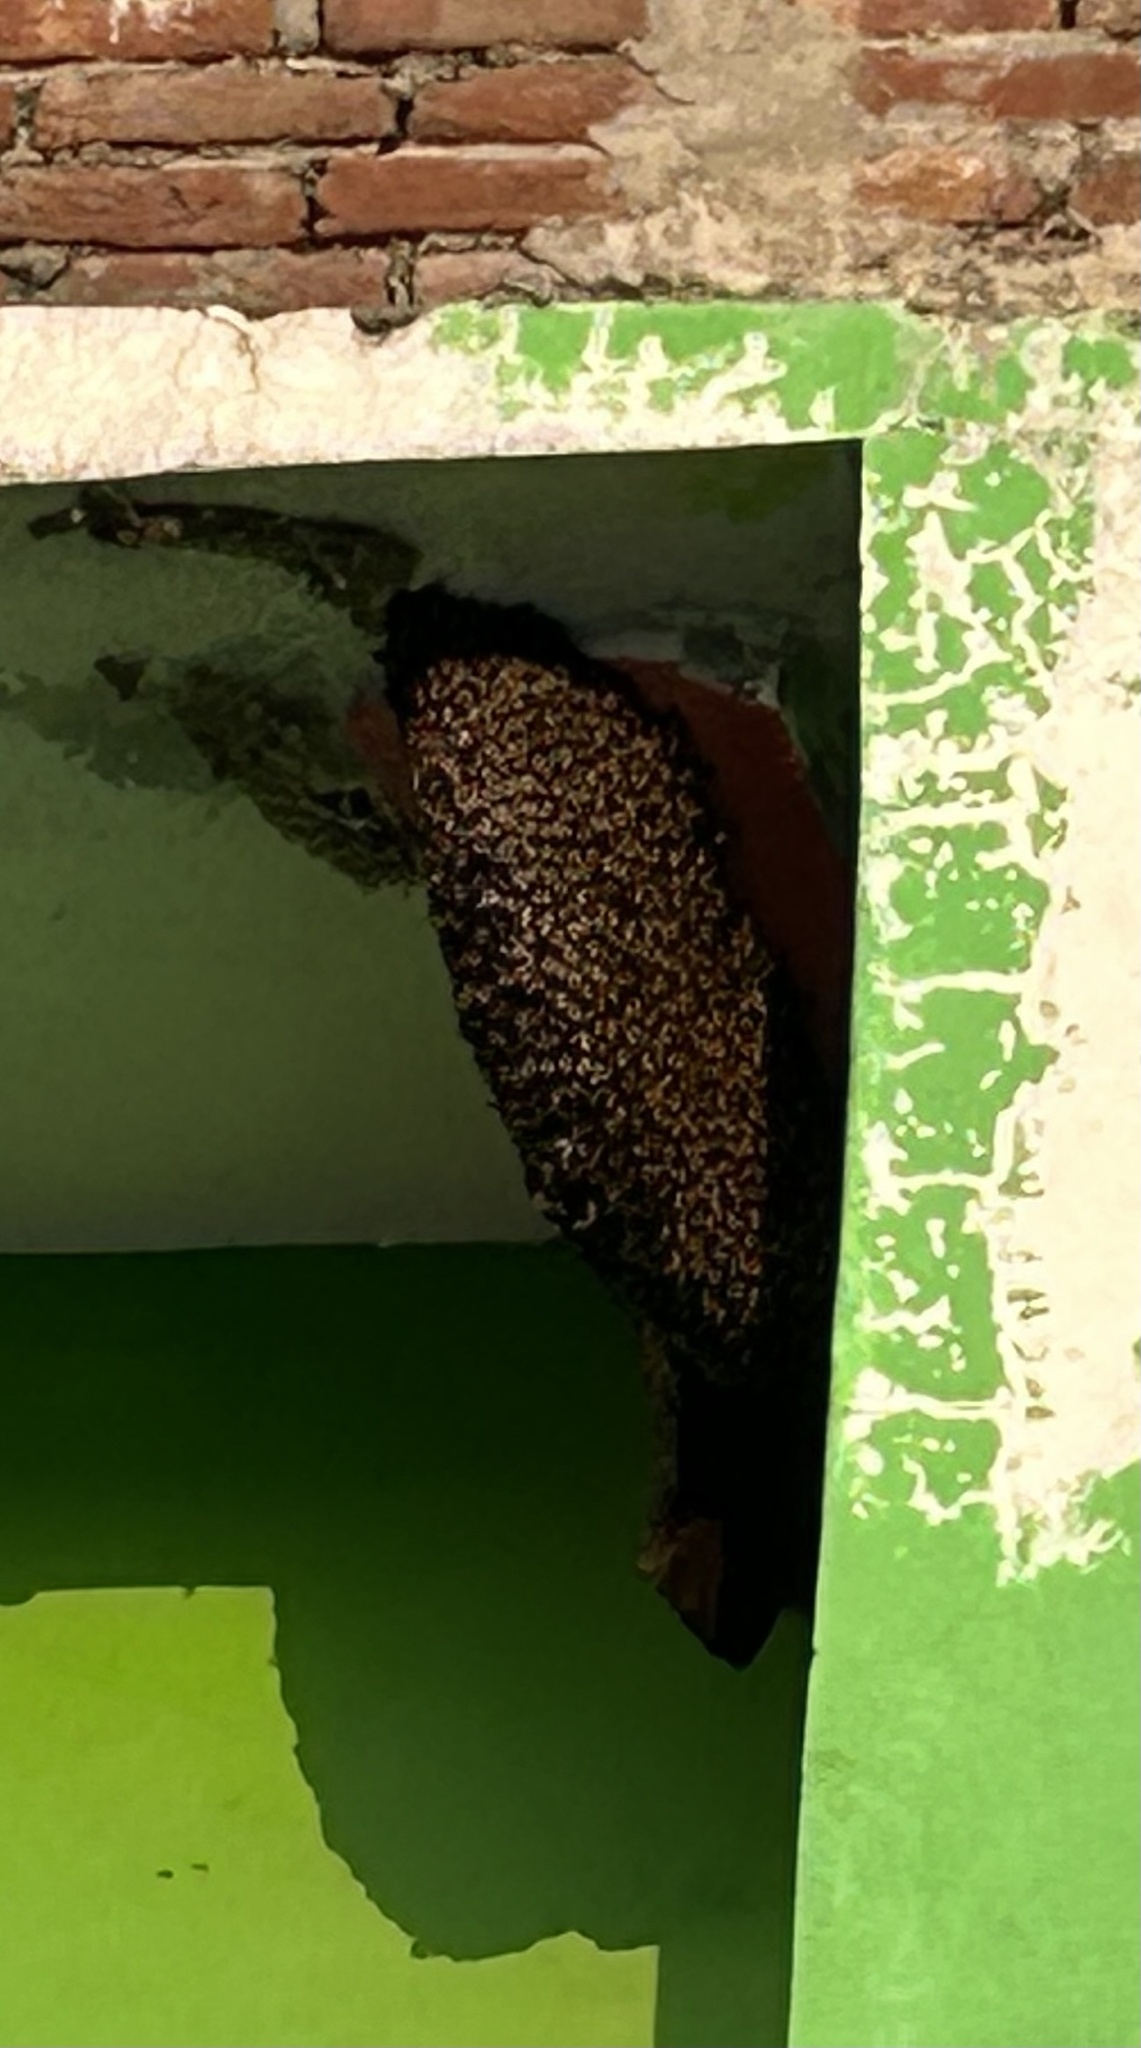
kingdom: Animalia
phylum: Arthropoda
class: Insecta
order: Hymenoptera
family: Apidae
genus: Apis
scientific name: Apis dorsata
